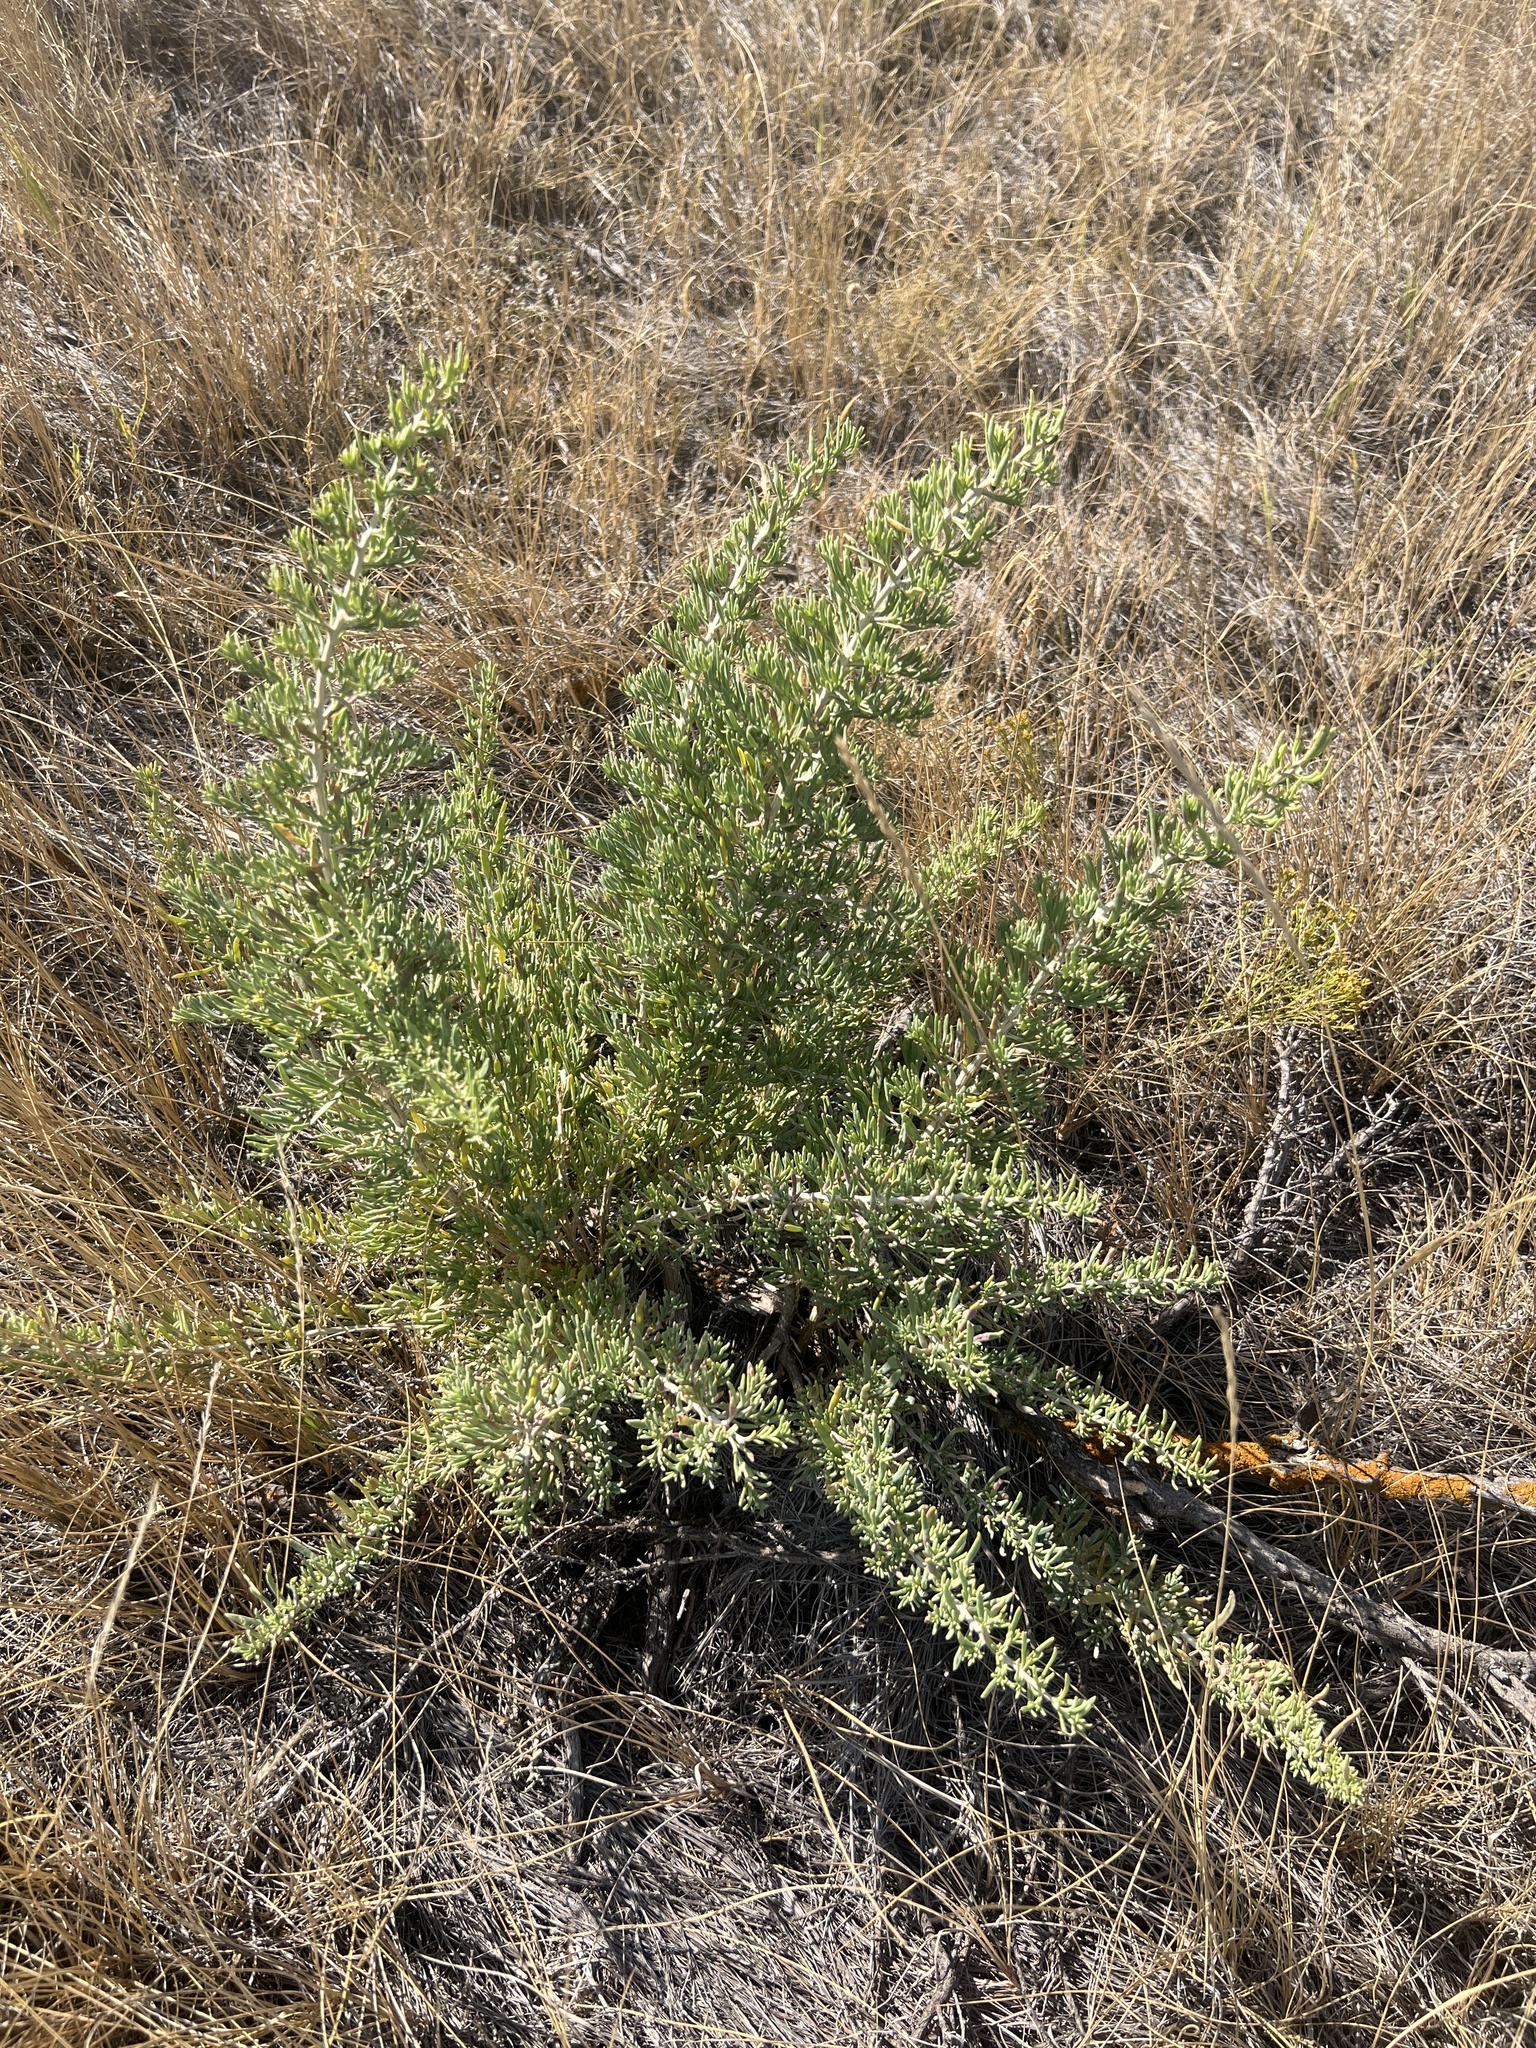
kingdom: Plantae
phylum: Tracheophyta
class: Magnoliopsida
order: Caryophyllales
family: Sarcobataceae
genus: Sarcobatus
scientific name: Sarcobatus vermiculatus
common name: Greasewood
